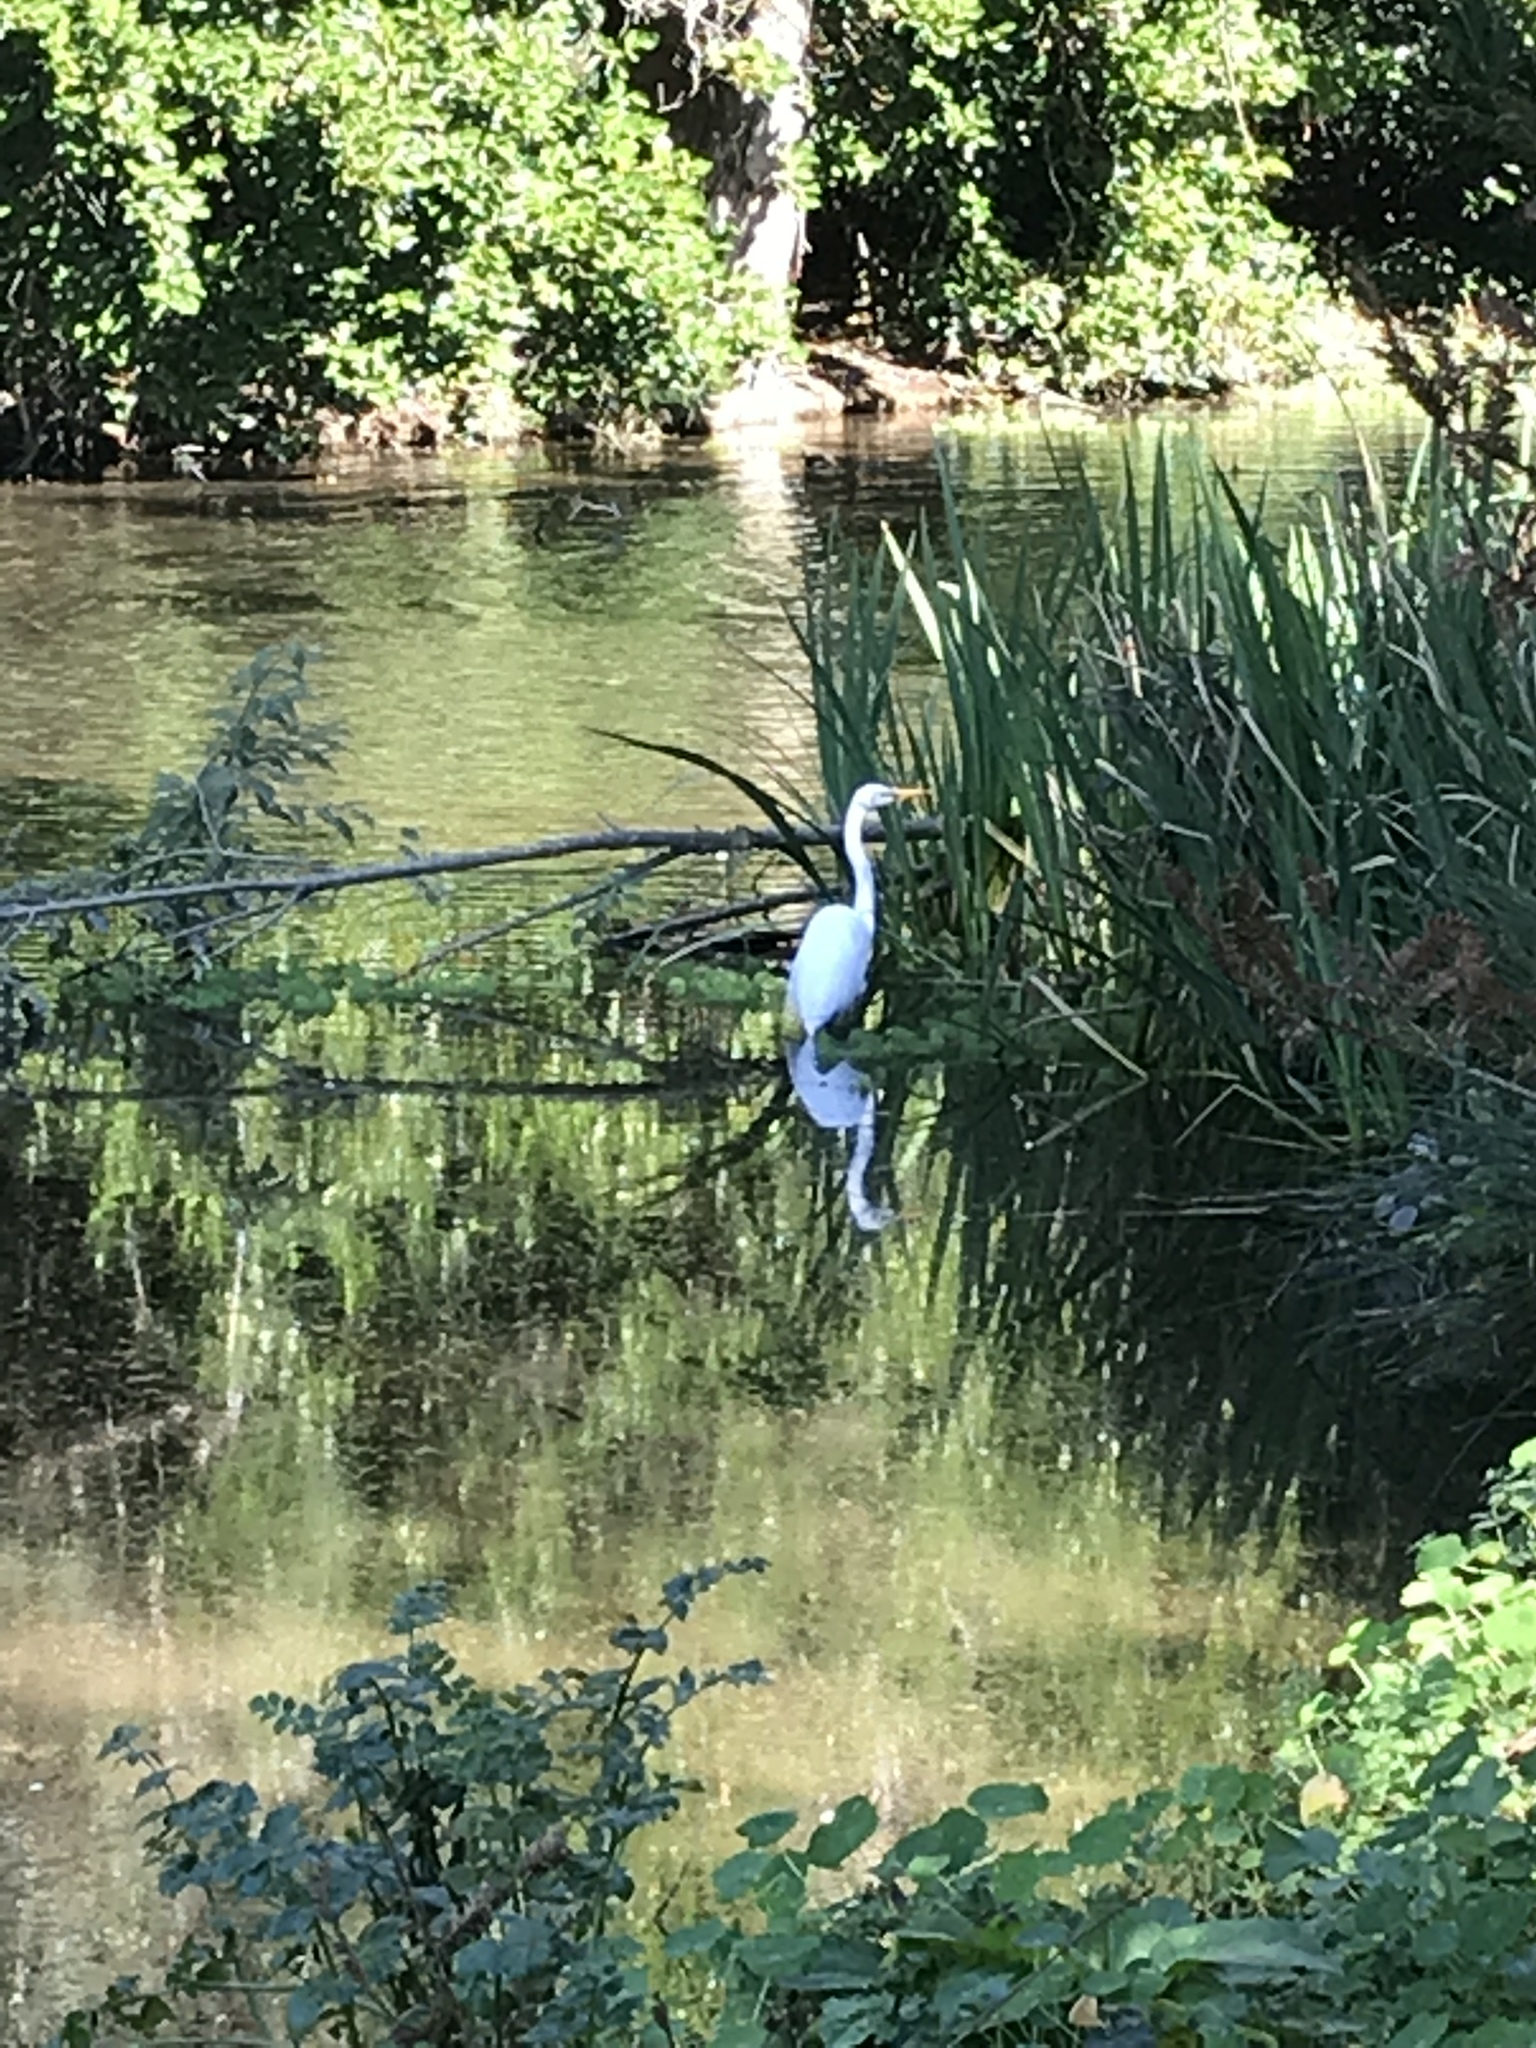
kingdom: Animalia
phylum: Chordata
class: Aves
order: Pelecaniformes
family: Ardeidae
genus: Ardea
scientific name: Ardea alba
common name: Great egret
